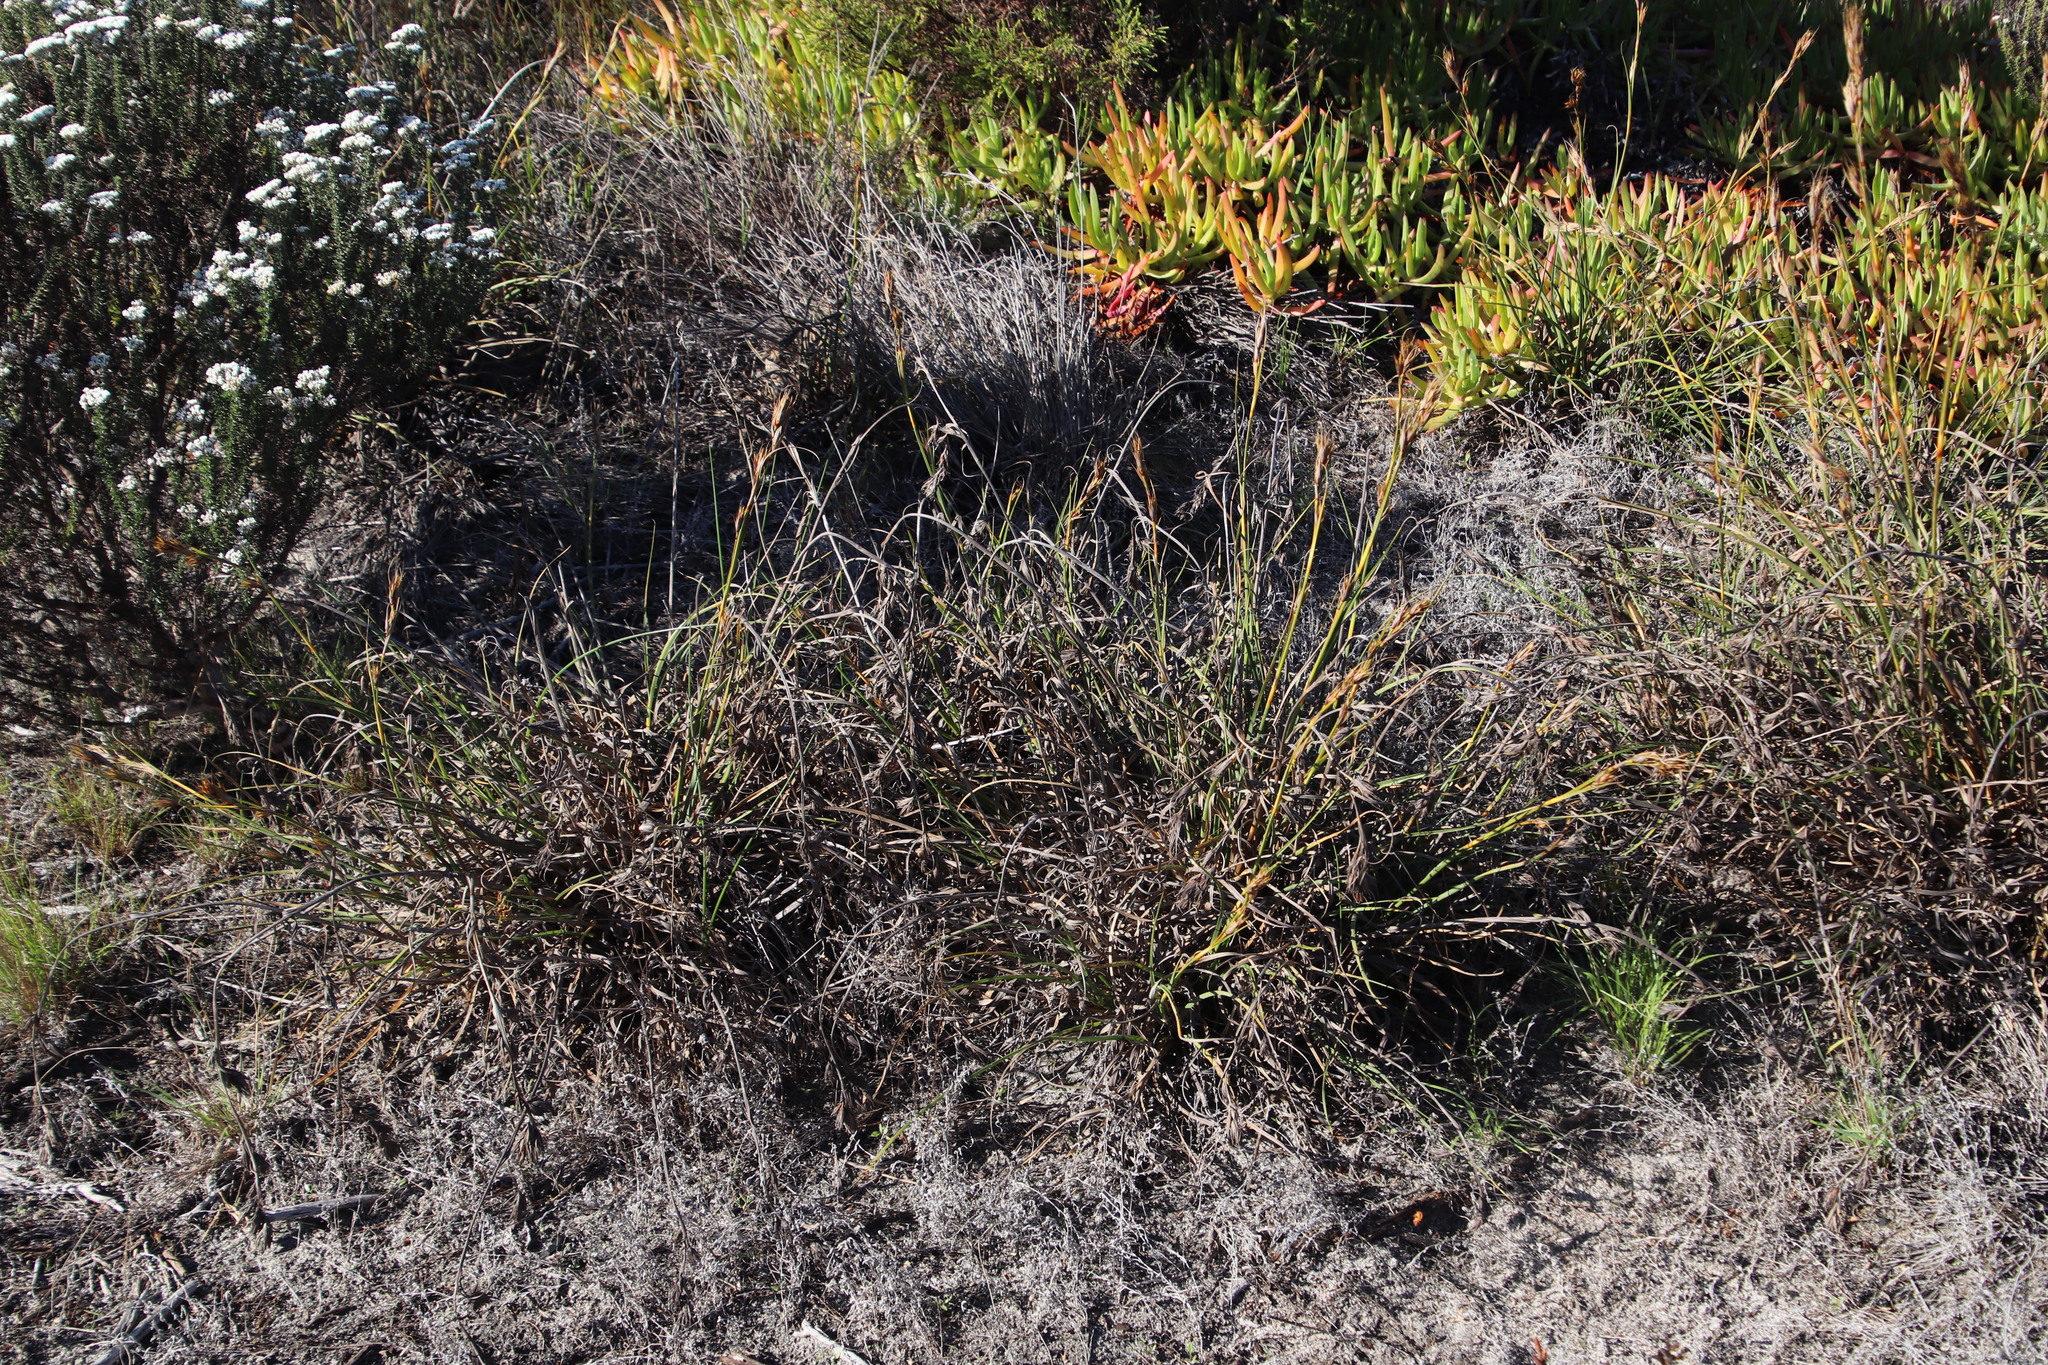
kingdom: Plantae
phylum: Tracheophyta
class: Liliopsida
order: Poales
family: Cyperaceae
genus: Tetraria
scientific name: Tetraria eximia
